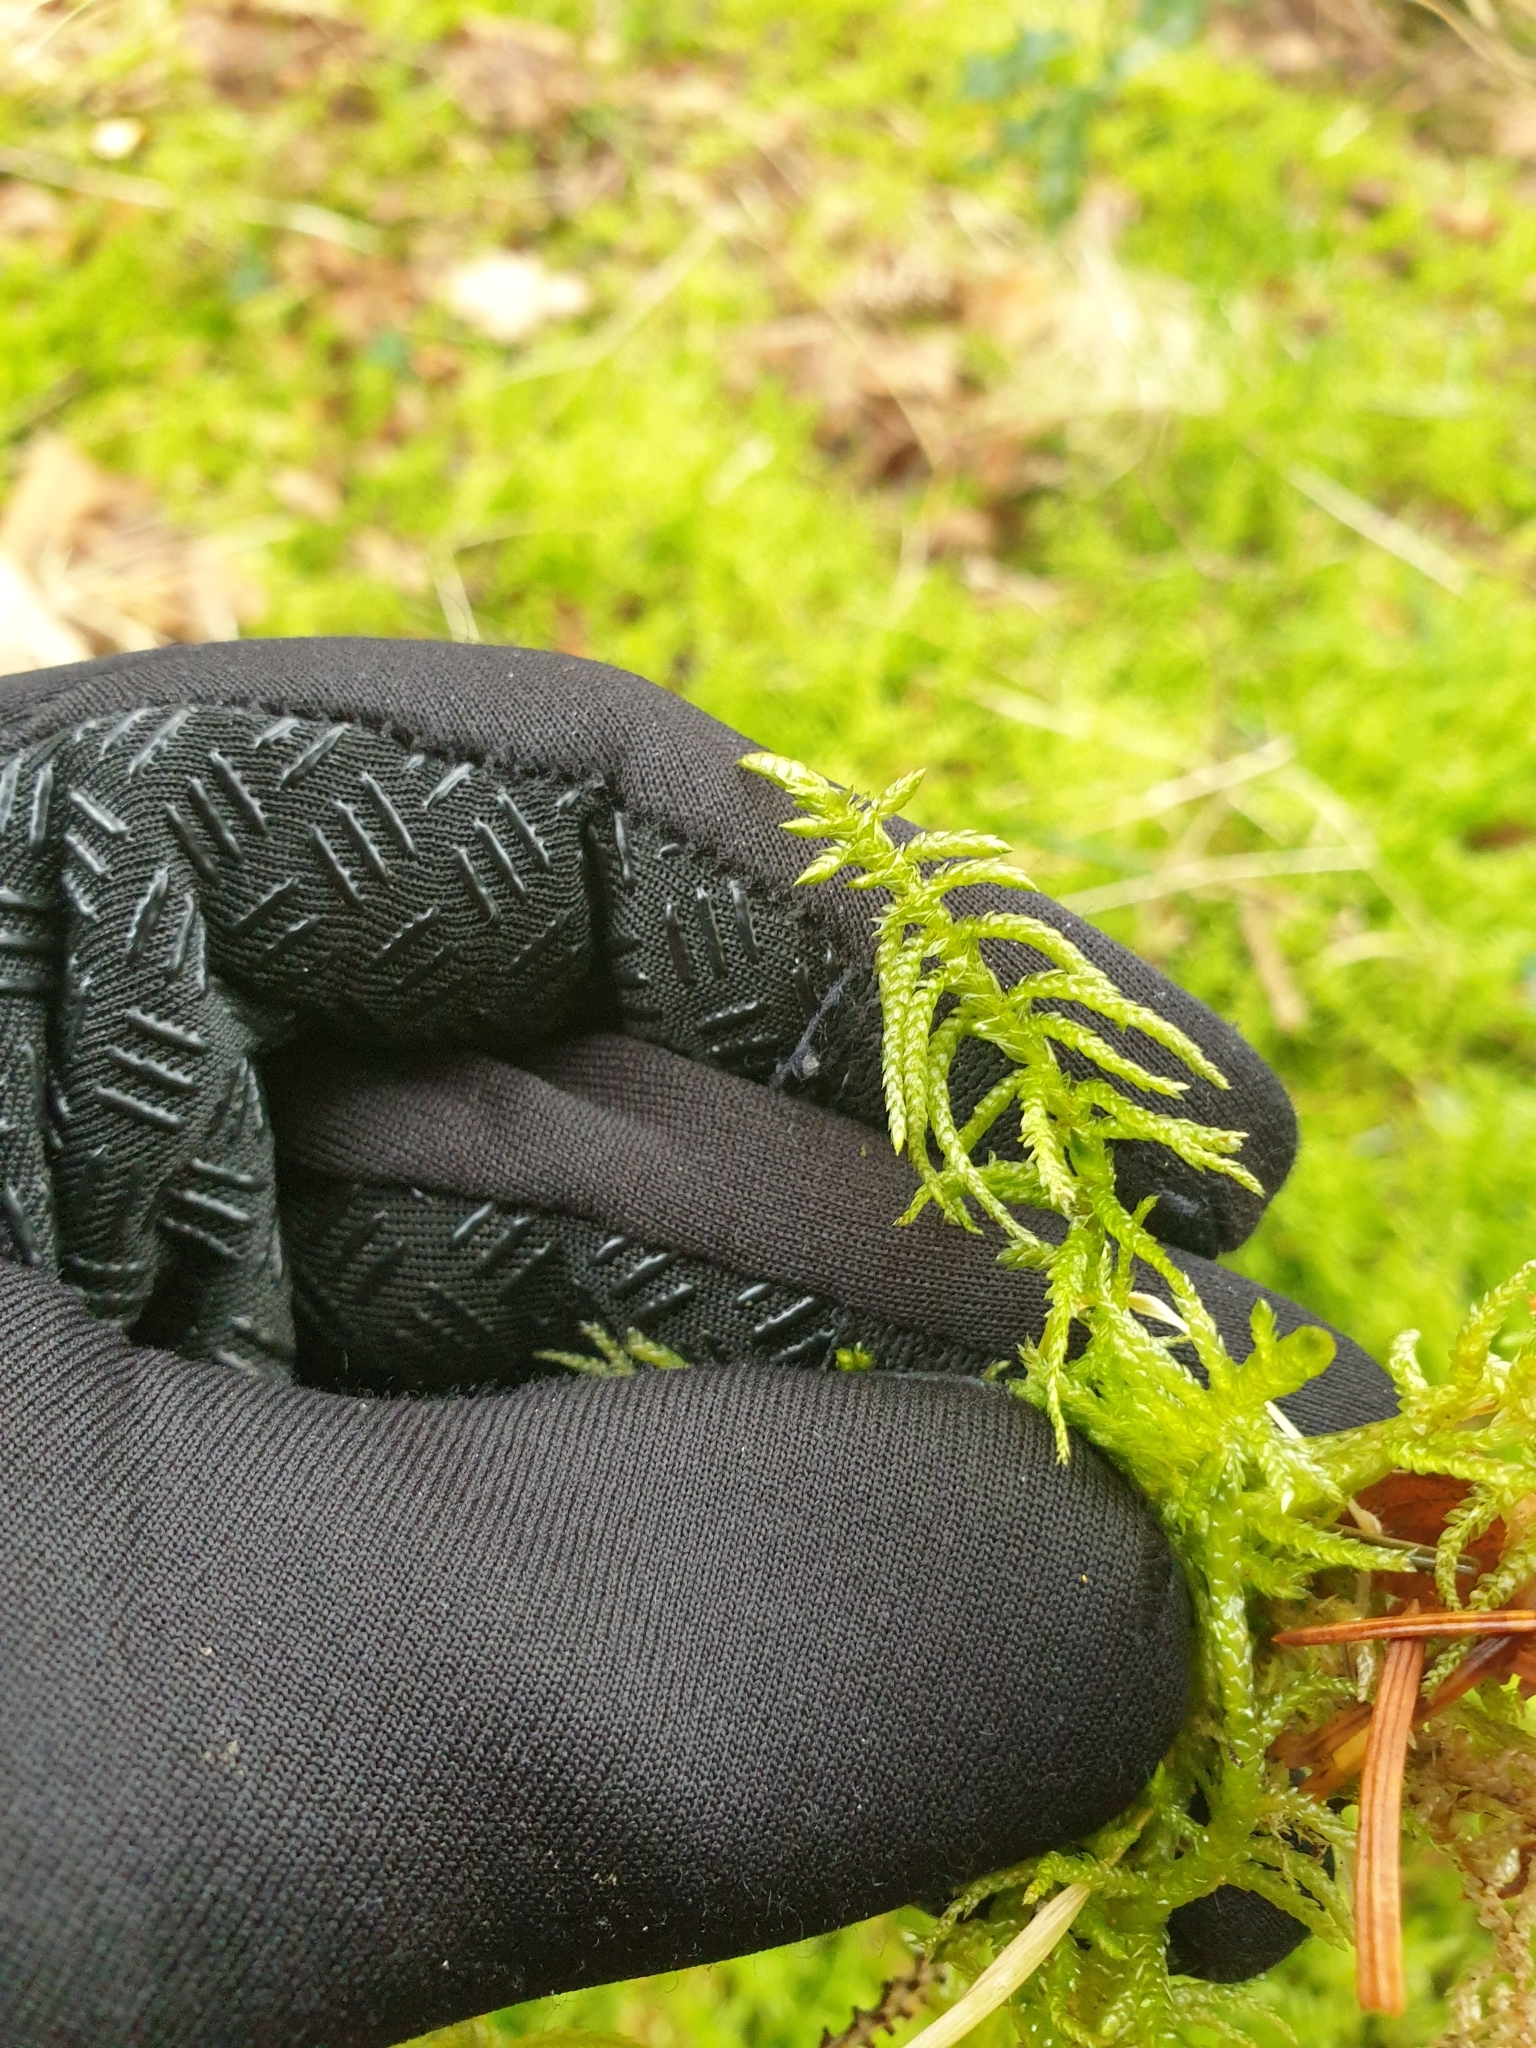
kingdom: Plantae
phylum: Bryophyta
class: Bryopsida
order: Hypnales
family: Brachytheciaceae
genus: Pseudoscleropodium
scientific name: Pseudoscleropodium purum
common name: Neat feather-moss
